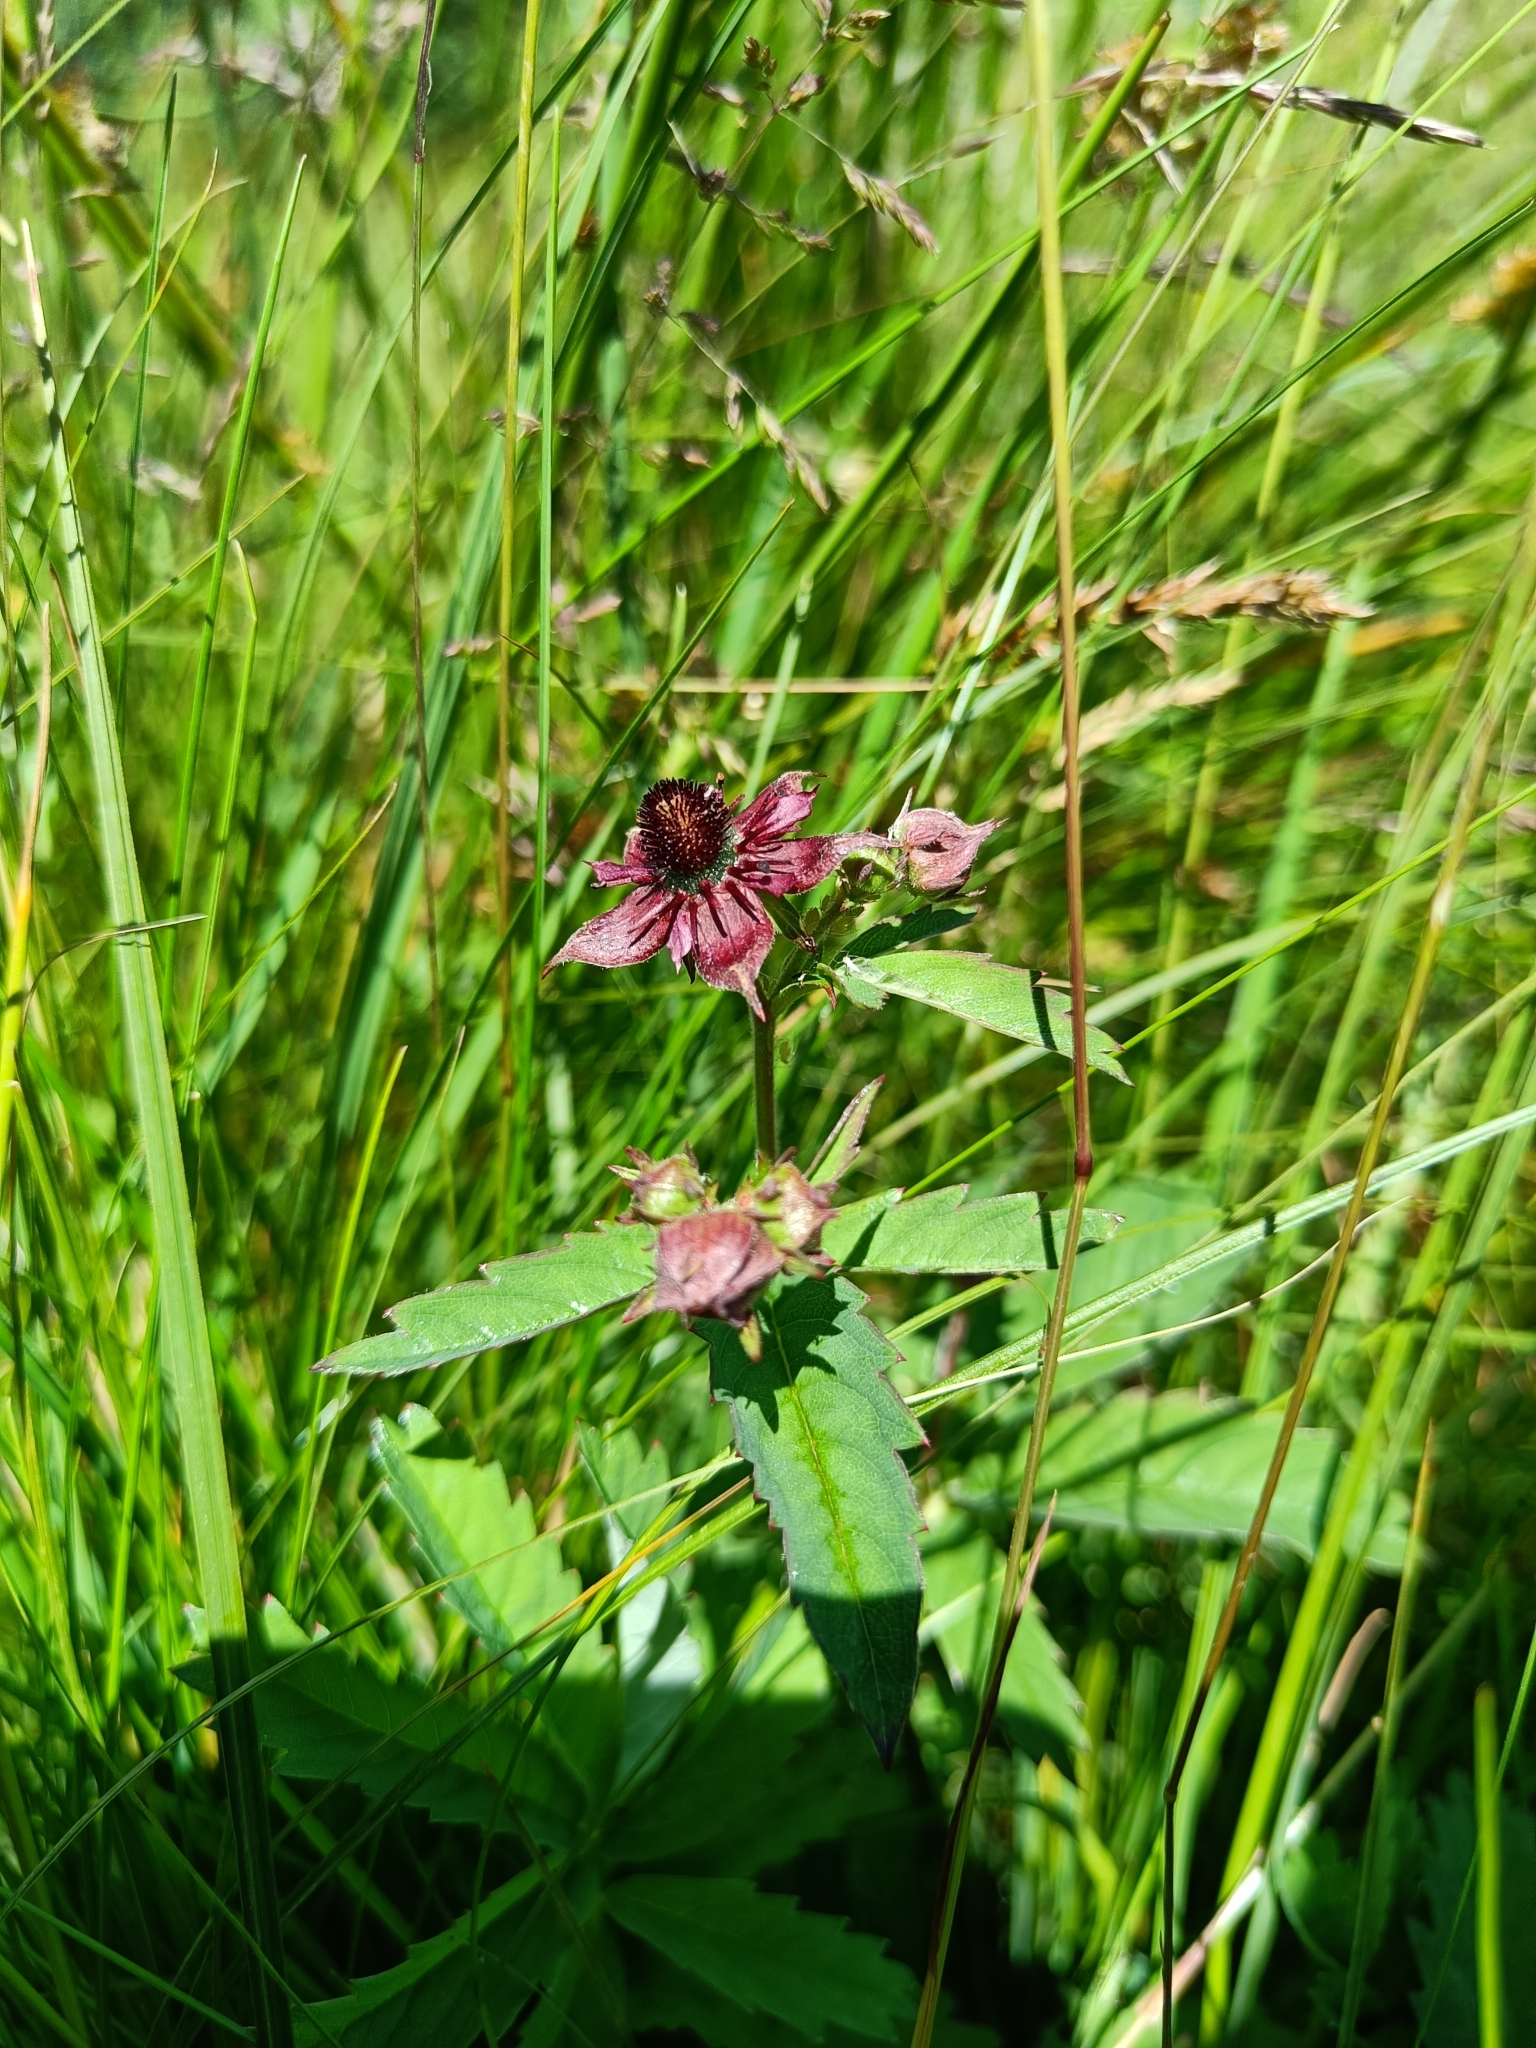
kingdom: Plantae
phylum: Tracheophyta
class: Magnoliopsida
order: Rosales
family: Rosaceae
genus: Comarum
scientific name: Comarum palustre
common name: Marsh cinquefoil
